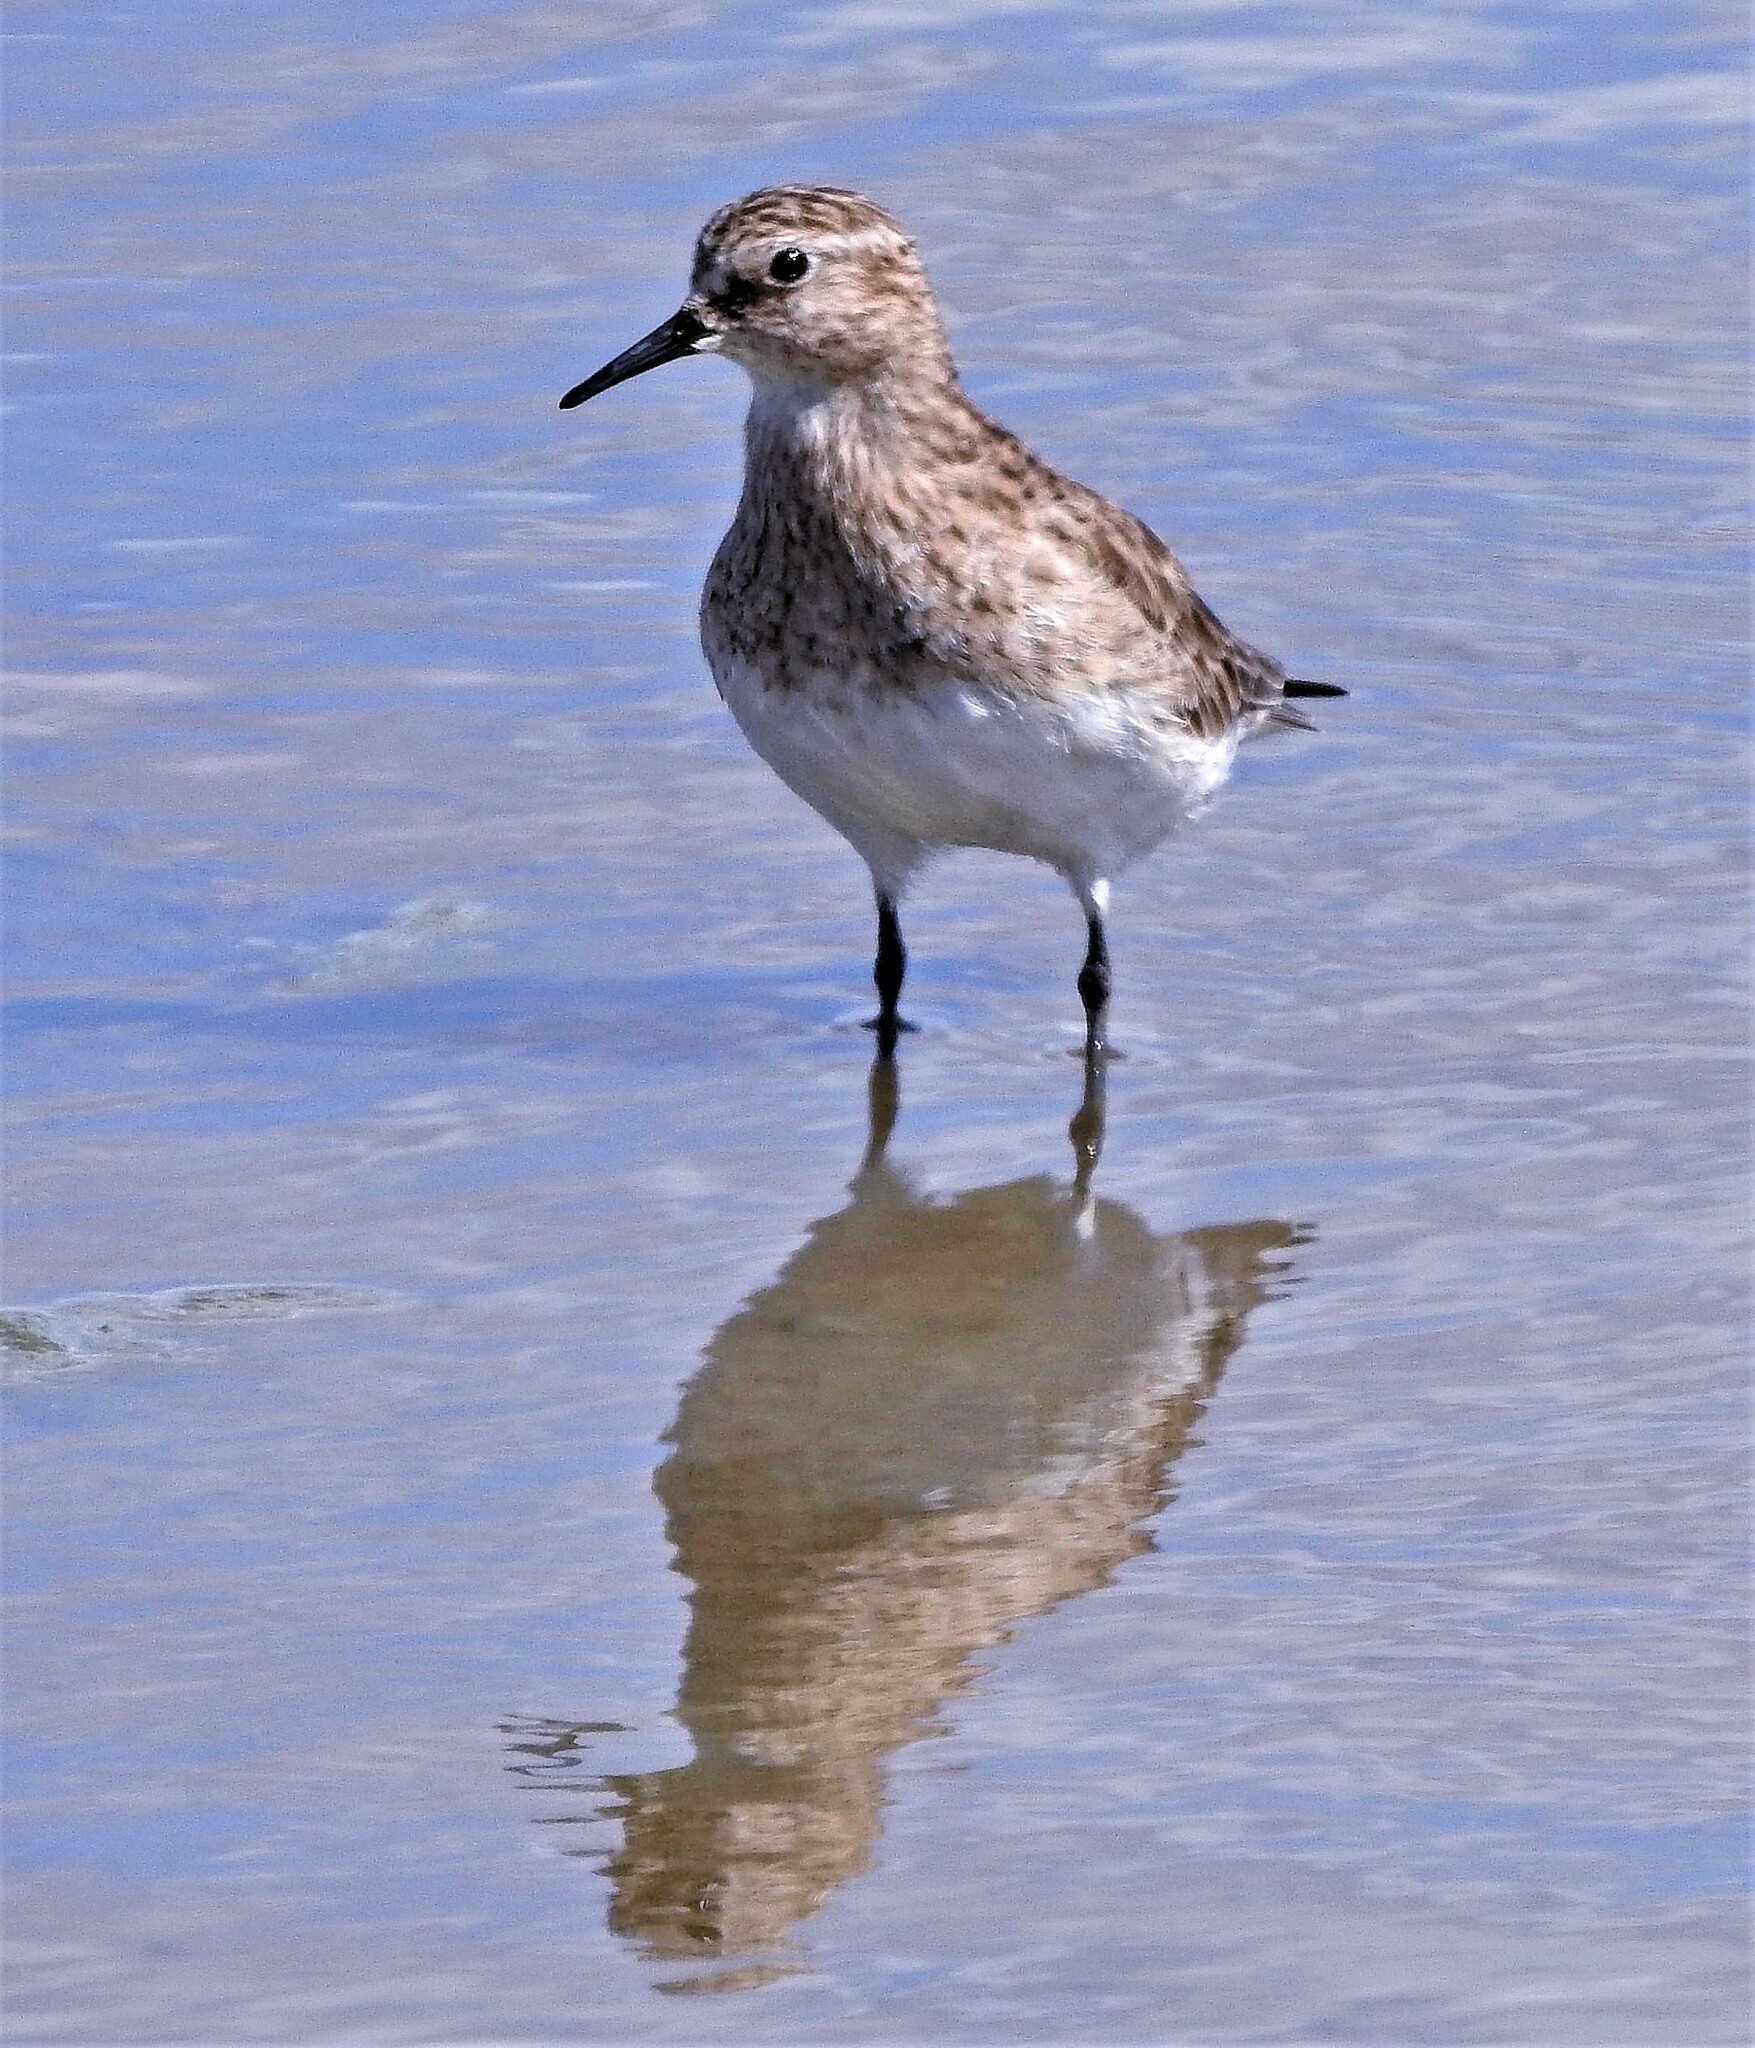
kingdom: Animalia
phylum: Chordata
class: Aves
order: Charadriiformes
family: Scolopacidae
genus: Calidris
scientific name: Calidris bairdii
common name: Baird's sandpiper
